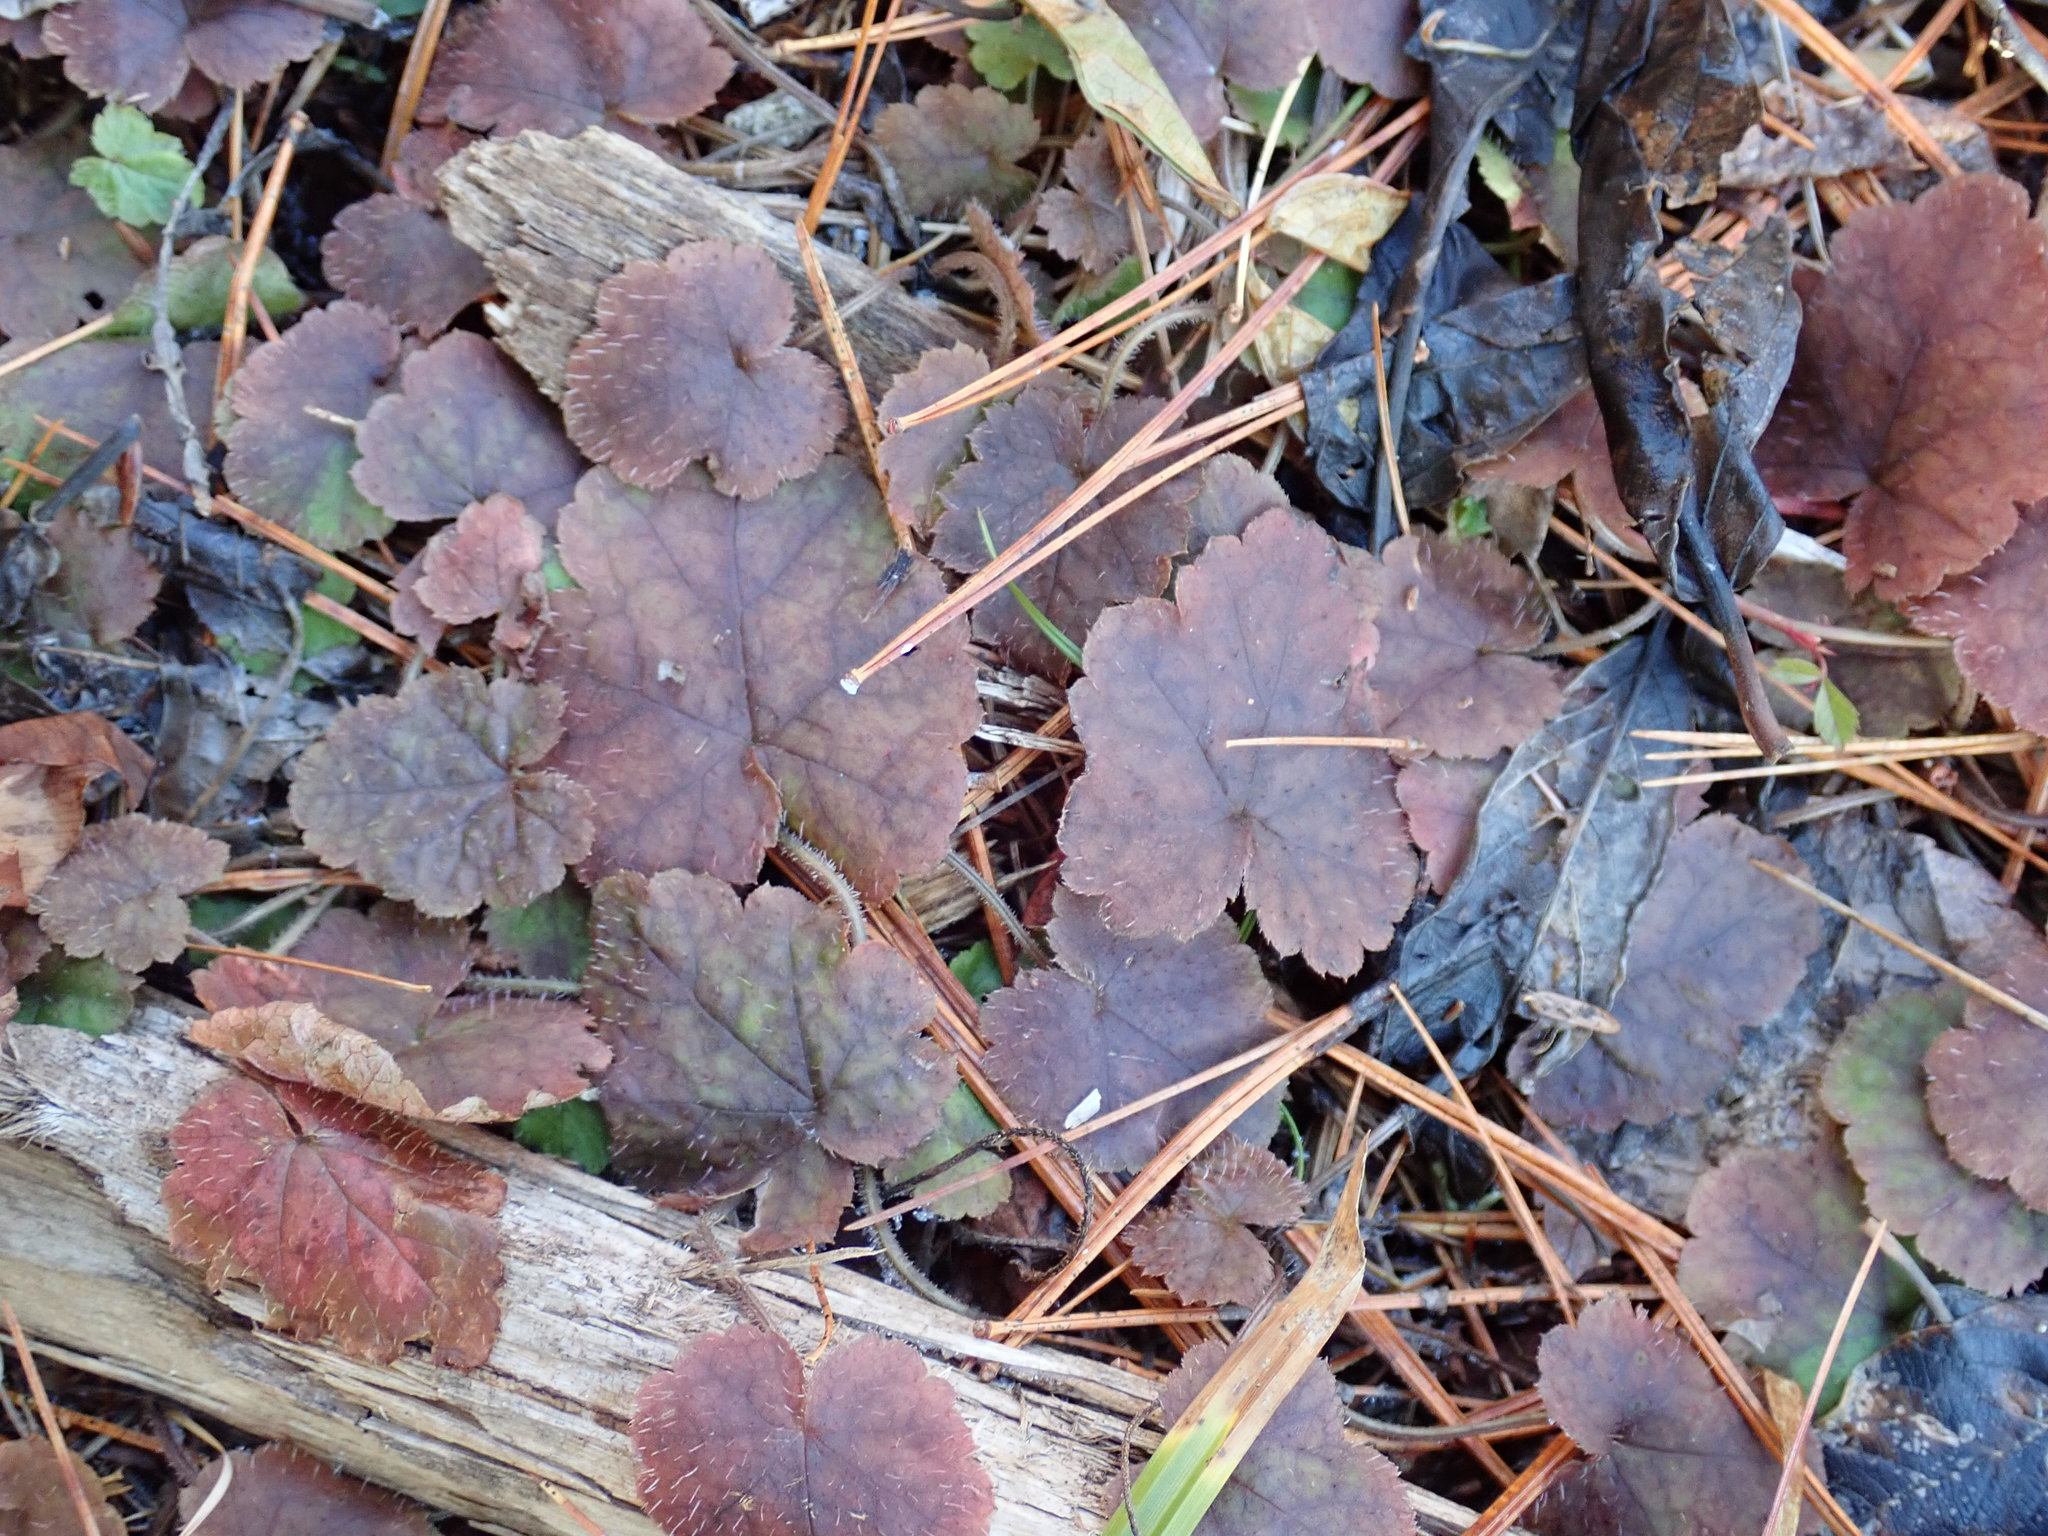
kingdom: Plantae
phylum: Tracheophyta
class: Magnoliopsida
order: Saxifragales
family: Saxifragaceae
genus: Tiarella
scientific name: Tiarella stolonifera
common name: Stoloniferous foamflower
